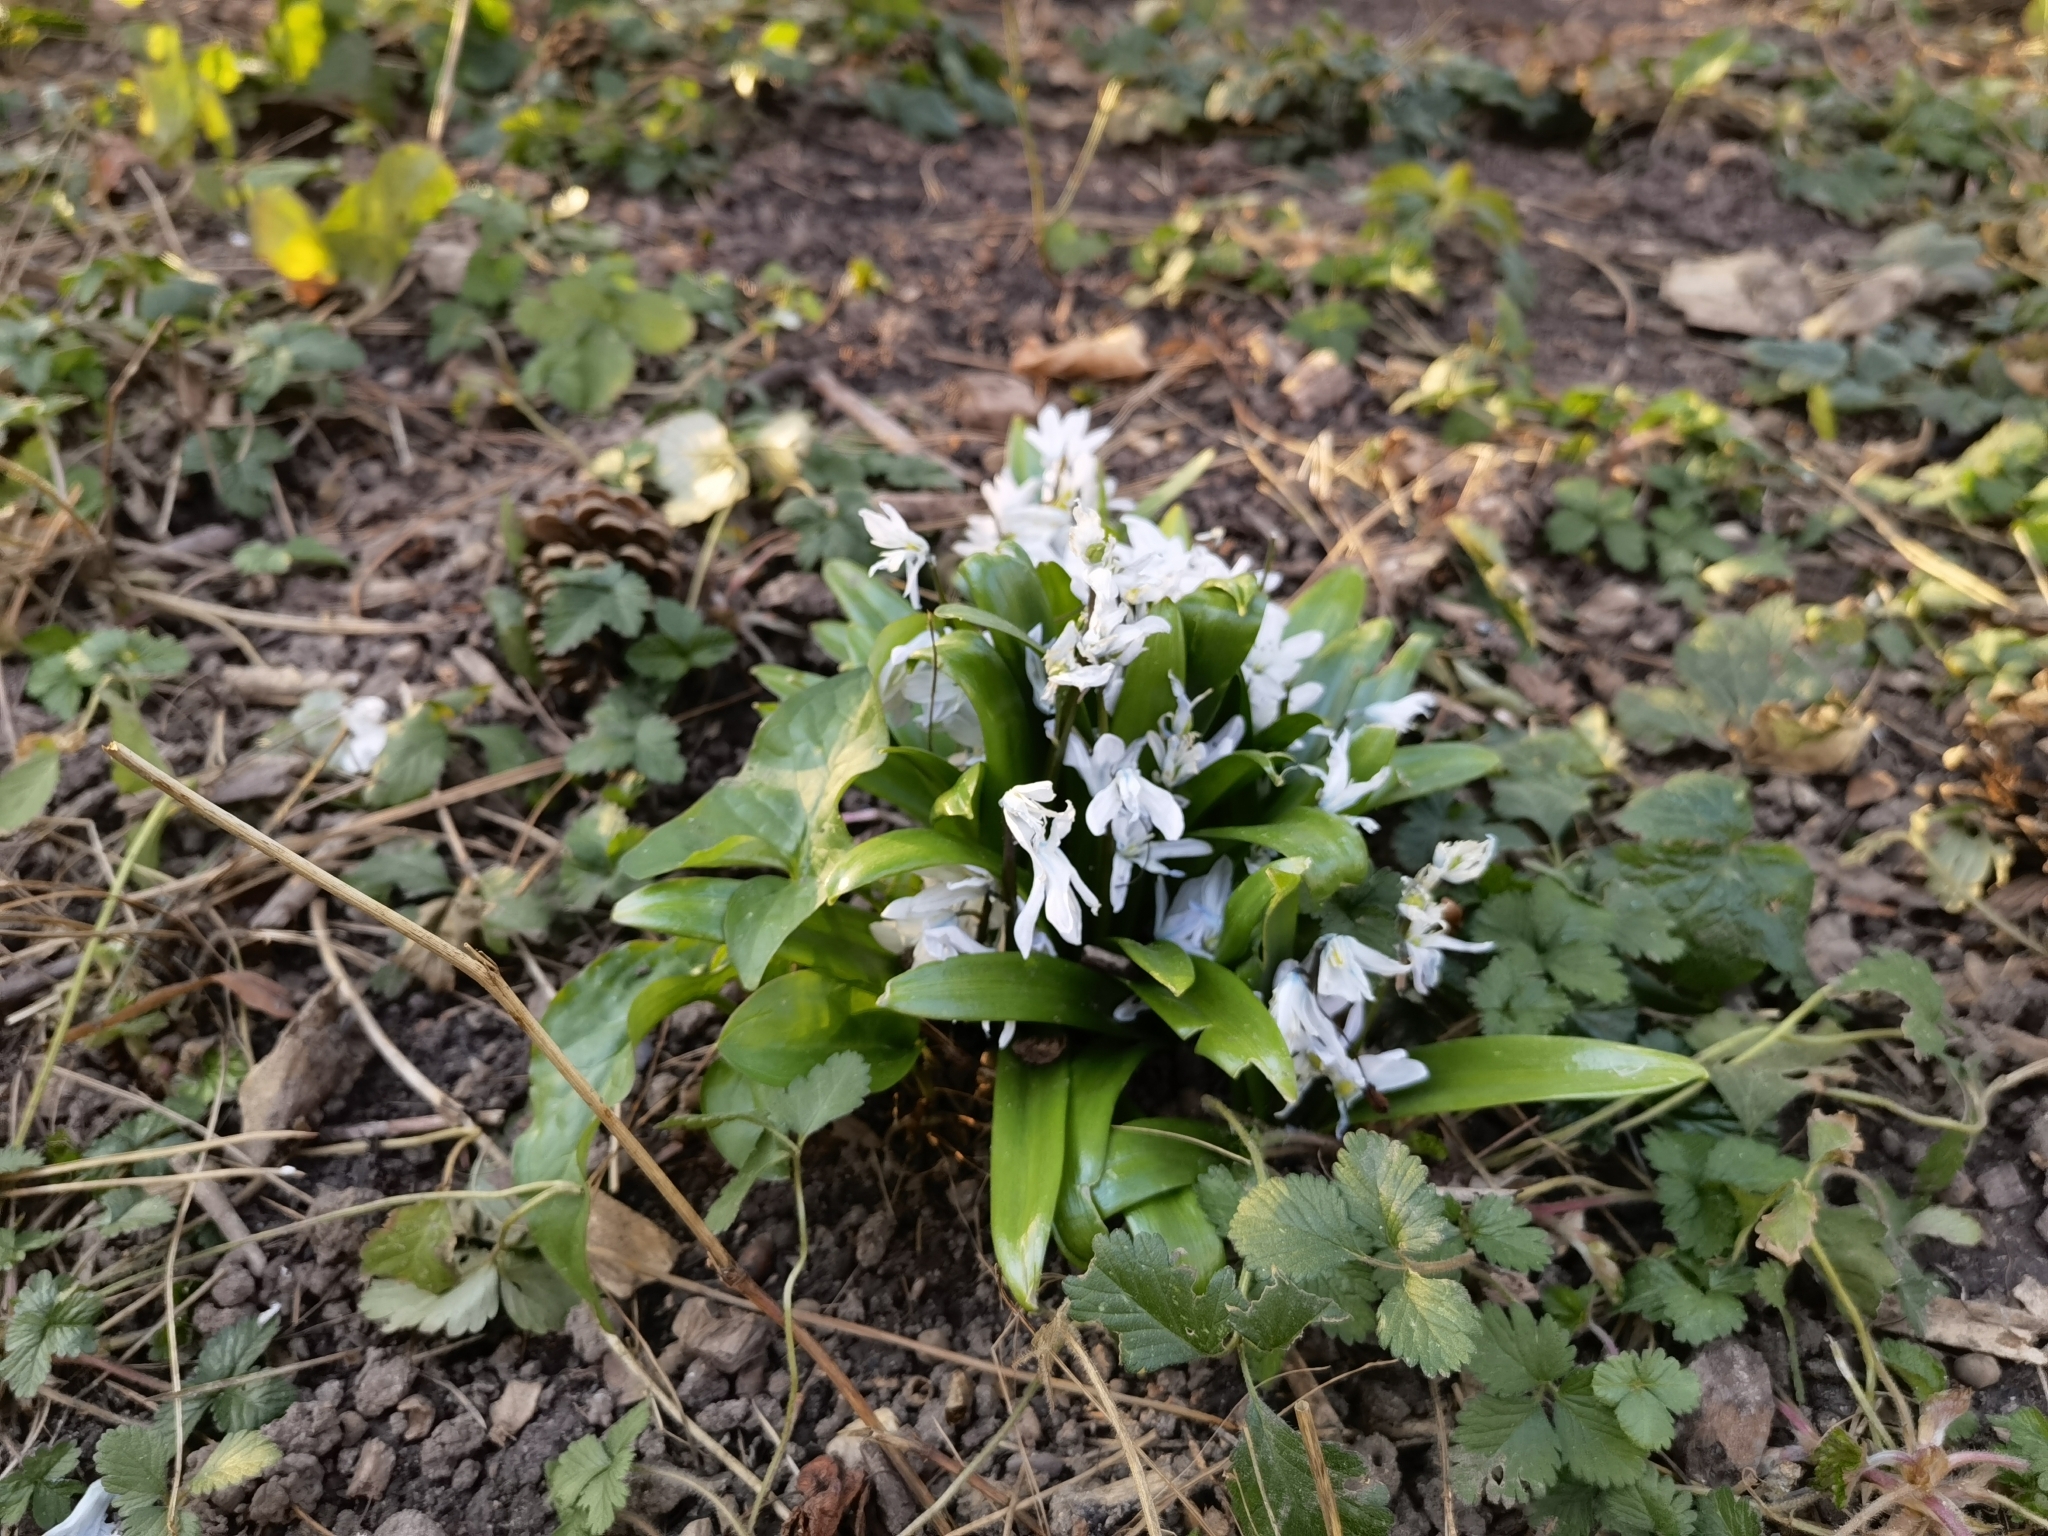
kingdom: Plantae
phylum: Tracheophyta
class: Liliopsida
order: Asparagales
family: Asparagaceae
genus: Scilla
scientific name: Scilla mischtschenkoana
